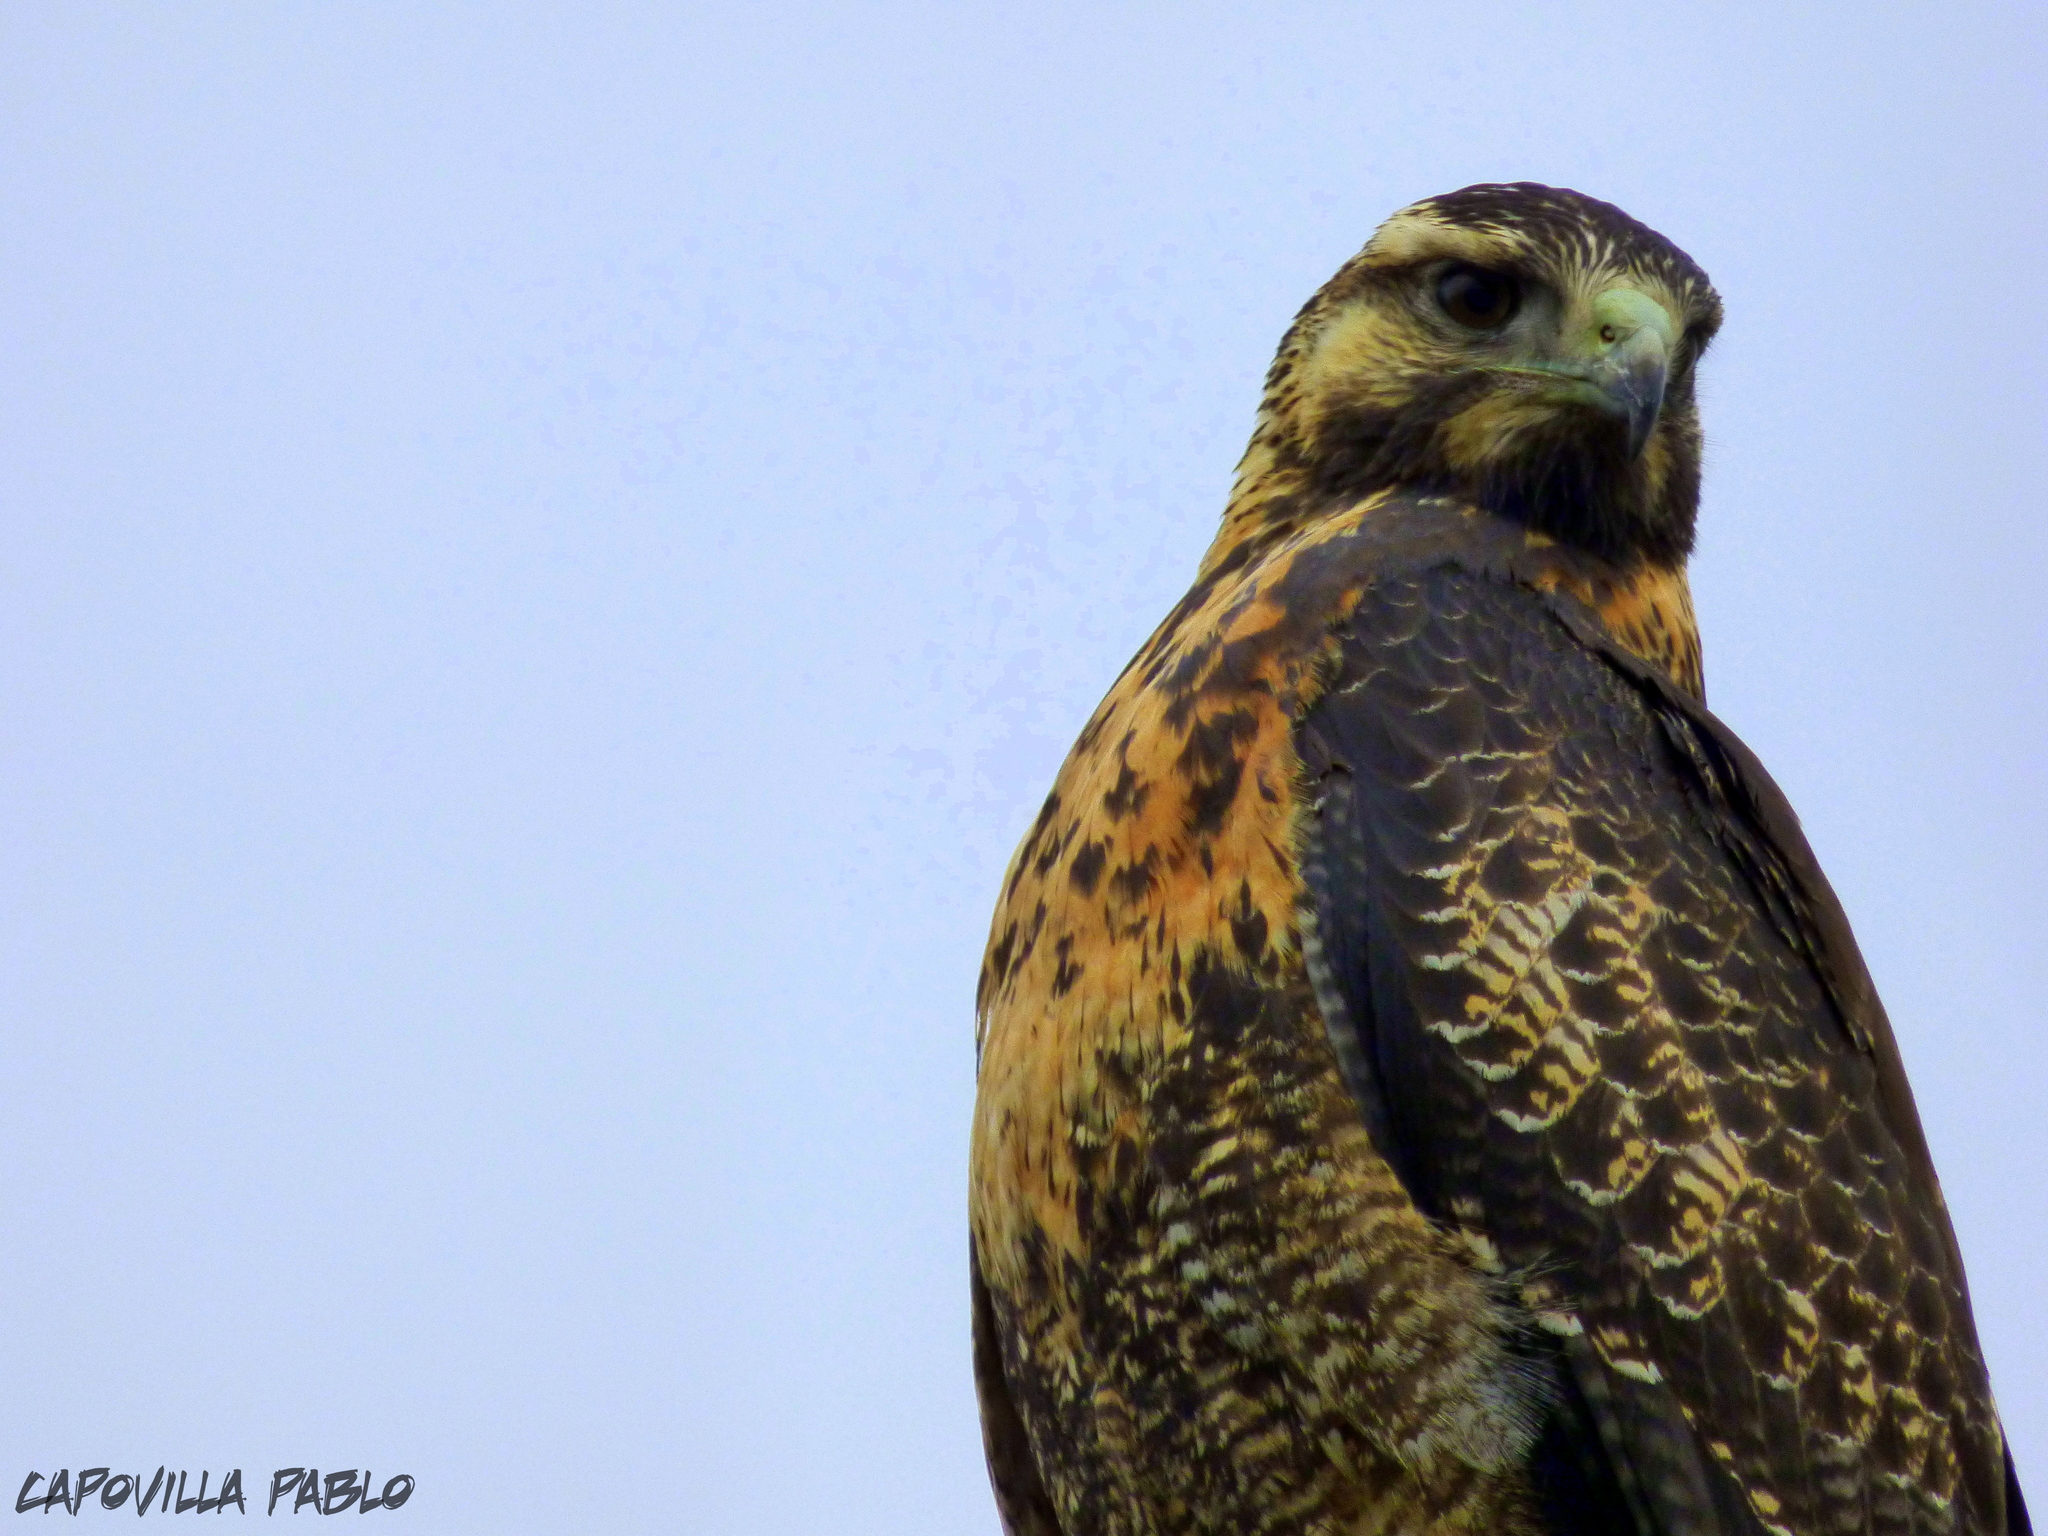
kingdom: Animalia
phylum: Chordata
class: Aves
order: Accipitriformes
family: Accipitridae
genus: Geranoaetus
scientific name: Geranoaetus melanoleucus
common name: Black-chested buzzard-eagle
